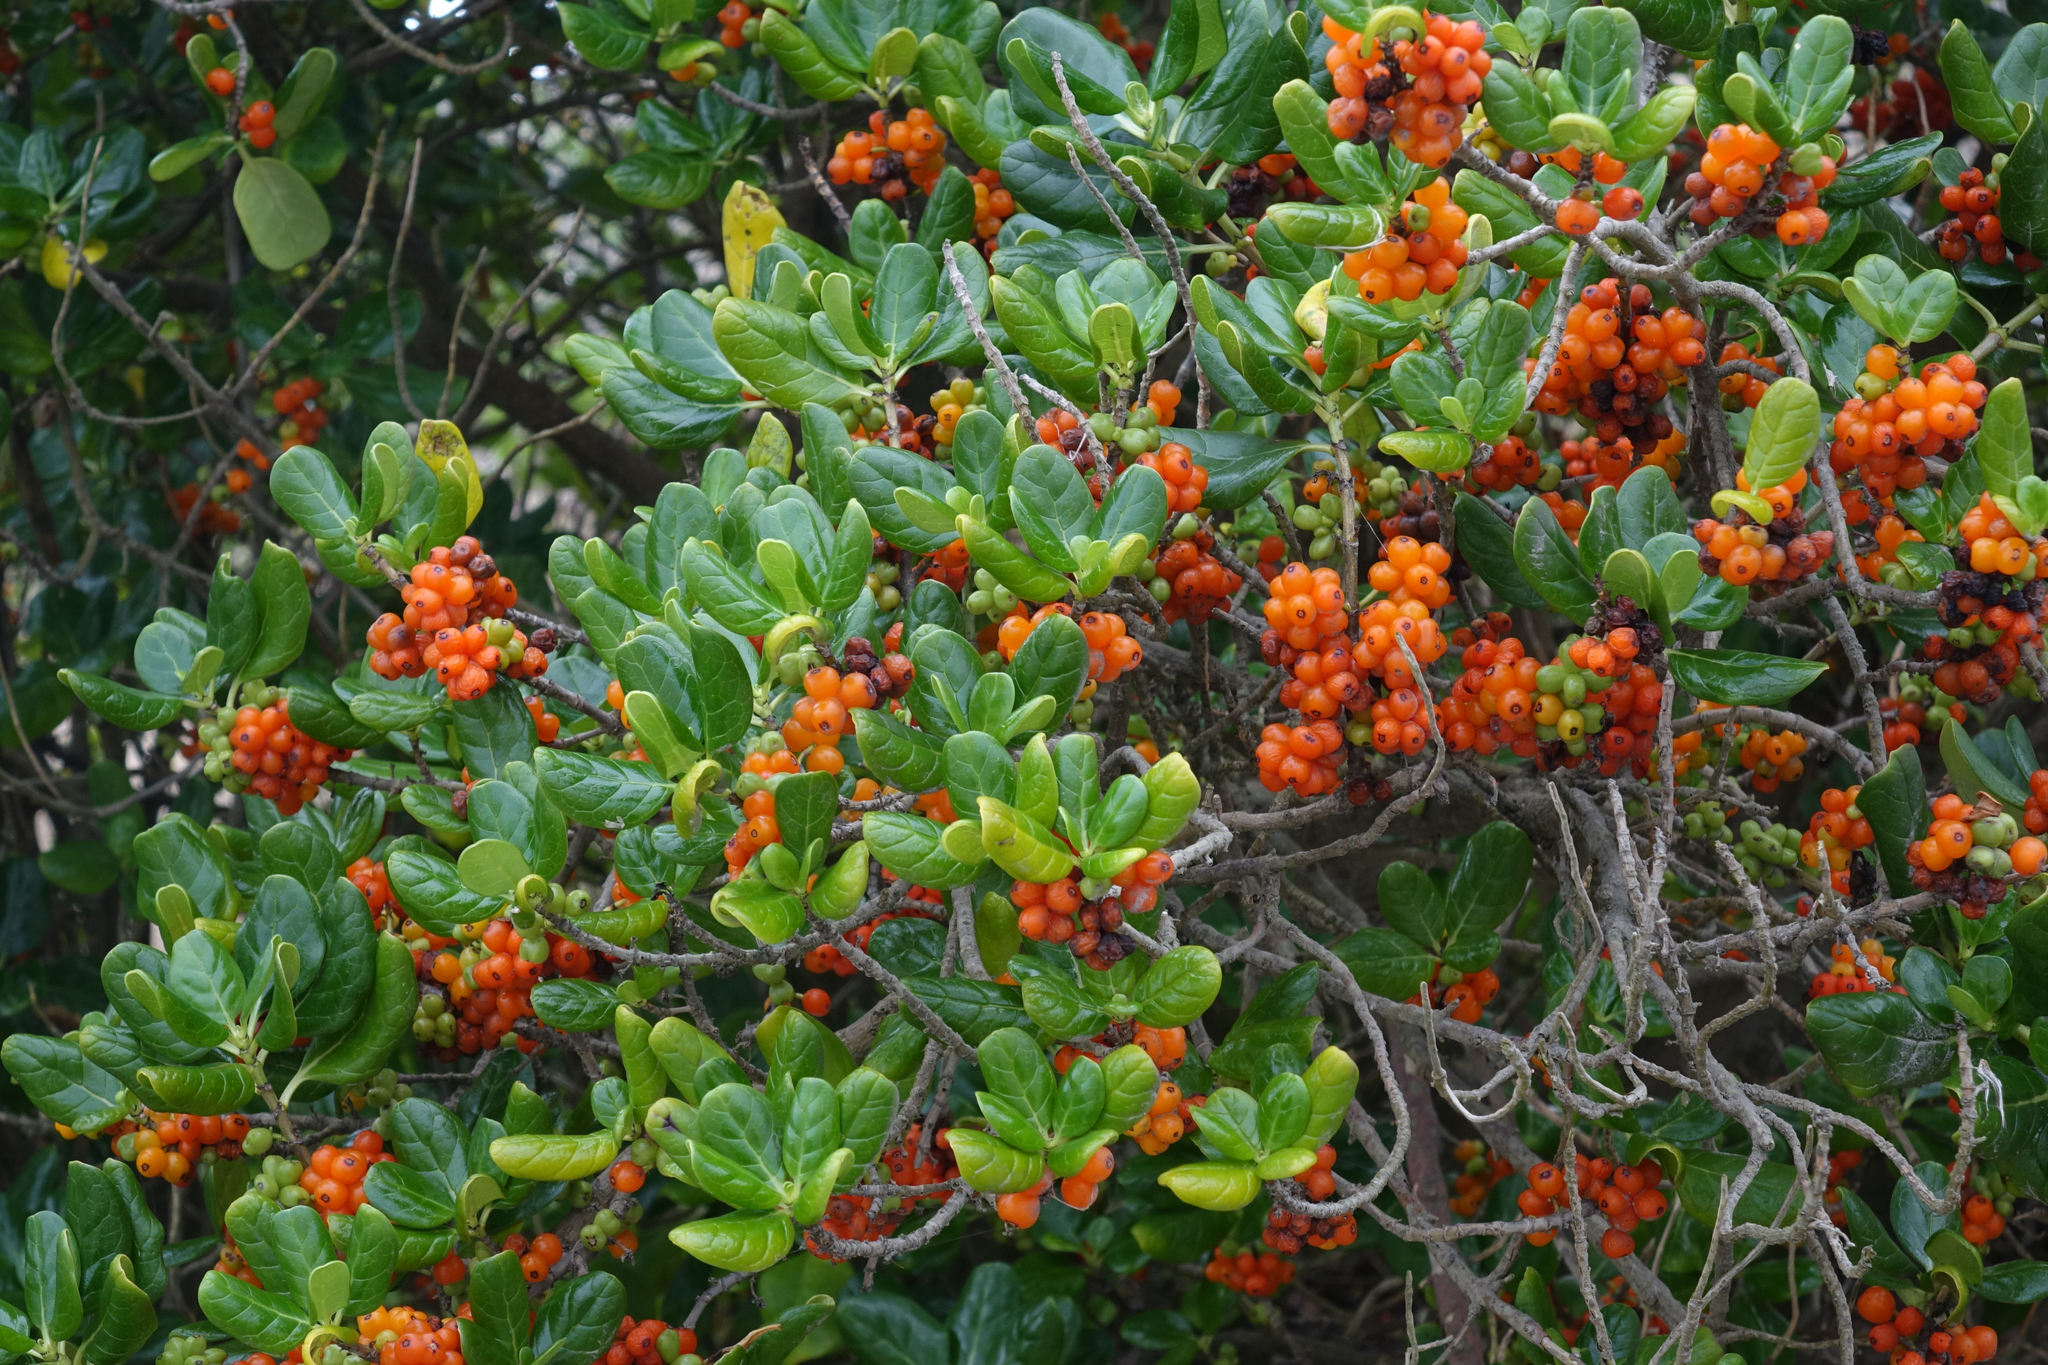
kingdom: Plantae
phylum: Tracheophyta
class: Magnoliopsida
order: Gentianales
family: Rubiaceae
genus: Coprosma
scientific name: Coprosma repens
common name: Tree bedstraw
